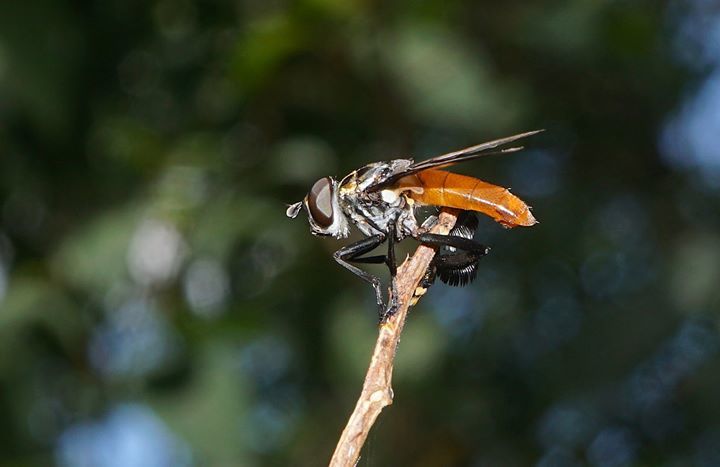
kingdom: Animalia
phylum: Arthropoda
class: Insecta
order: Diptera
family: Tachinidae
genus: Trichopoda
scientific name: Trichopoda pennipes
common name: Tachinid fly
